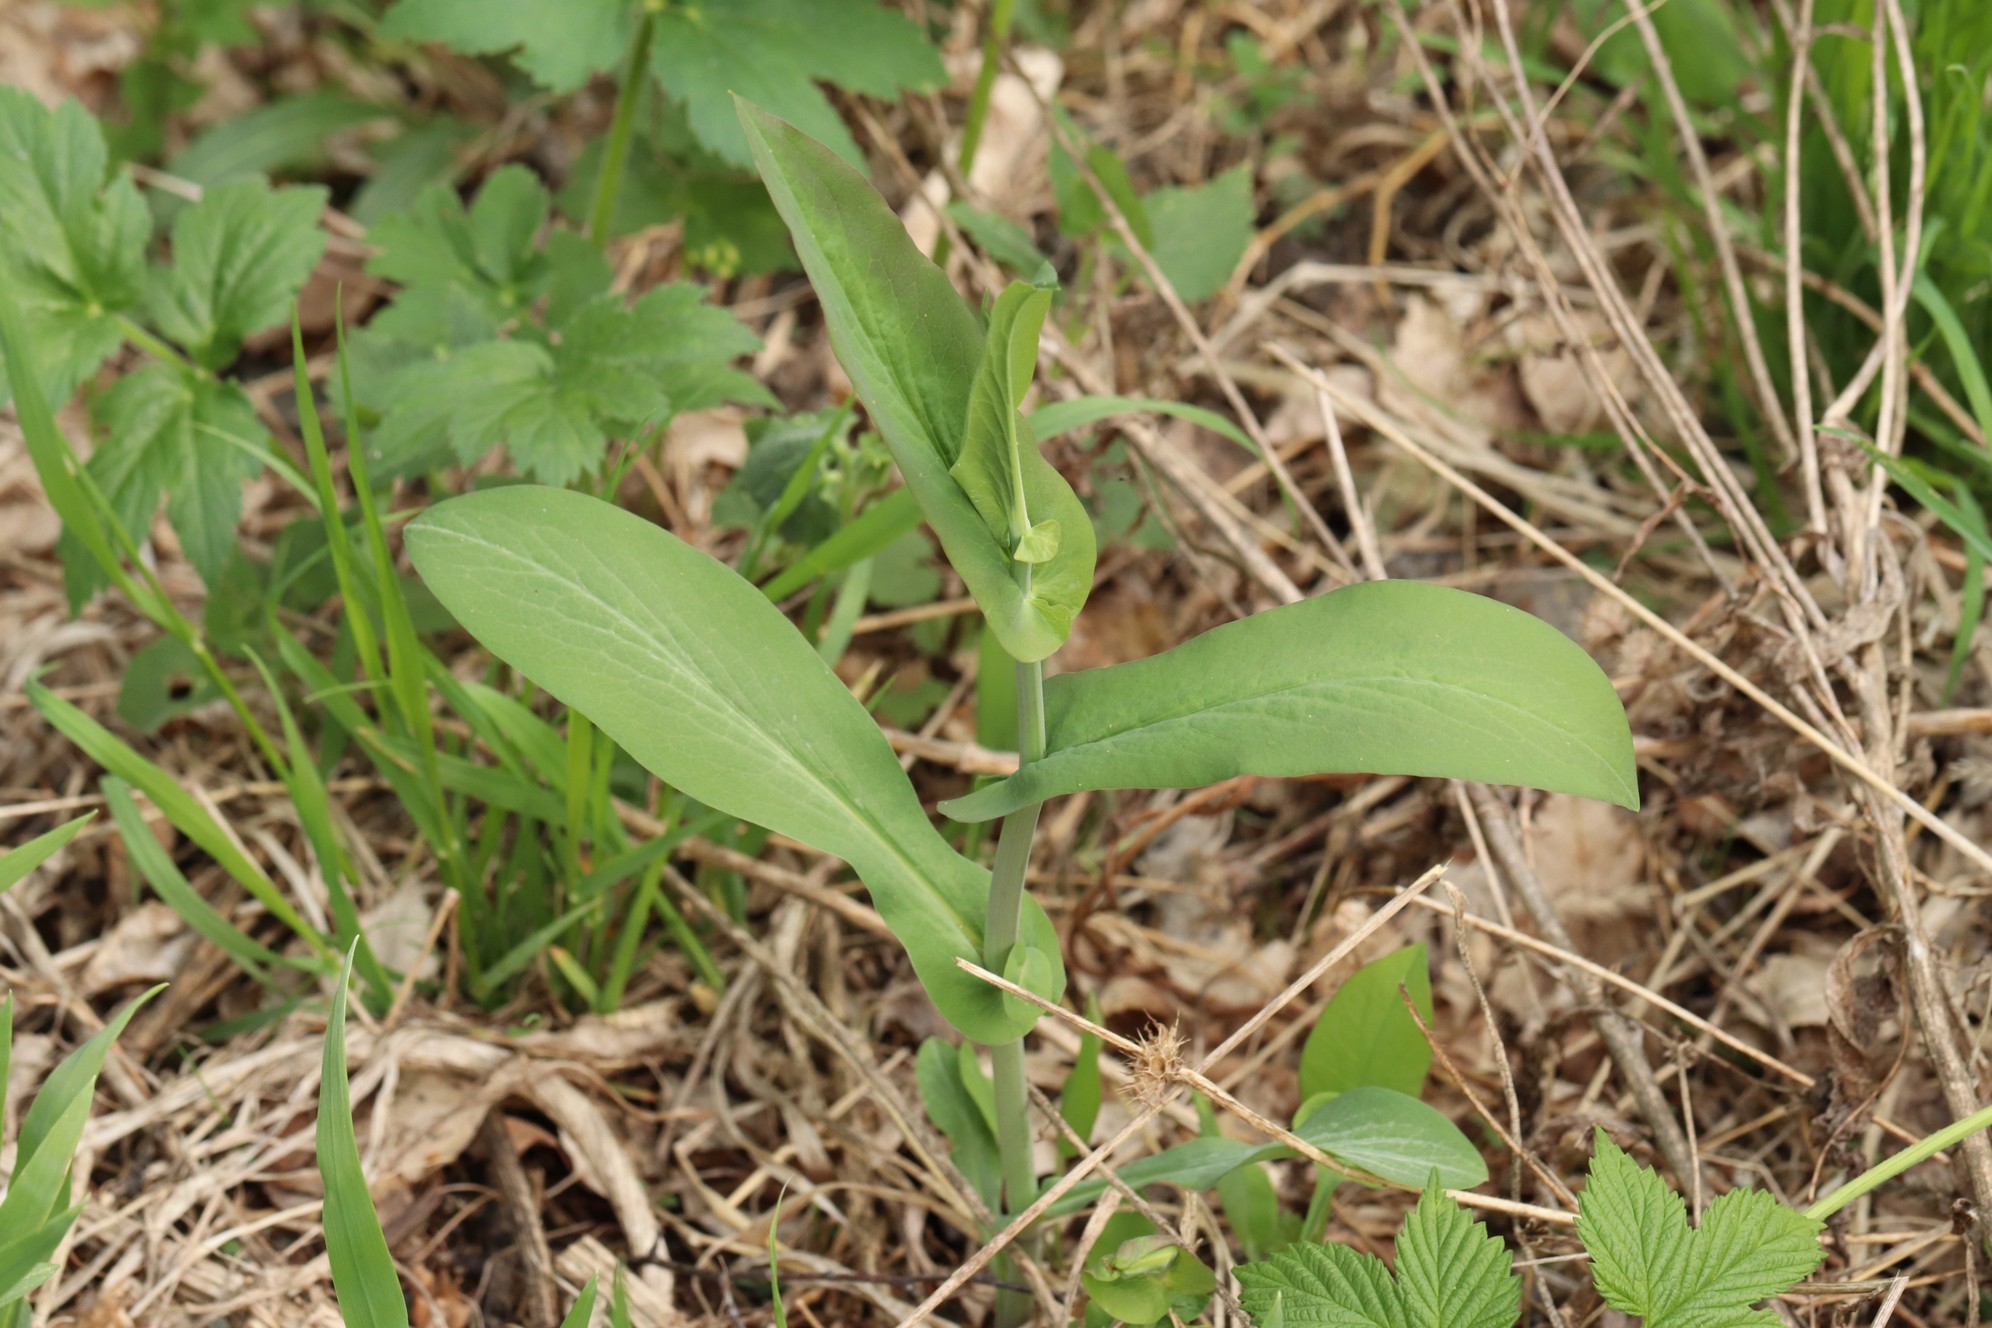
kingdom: Plantae
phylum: Tracheophyta
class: Magnoliopsida
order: Apiales
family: Apiaceae
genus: Bupleurum
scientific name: Bupleurum aureum
